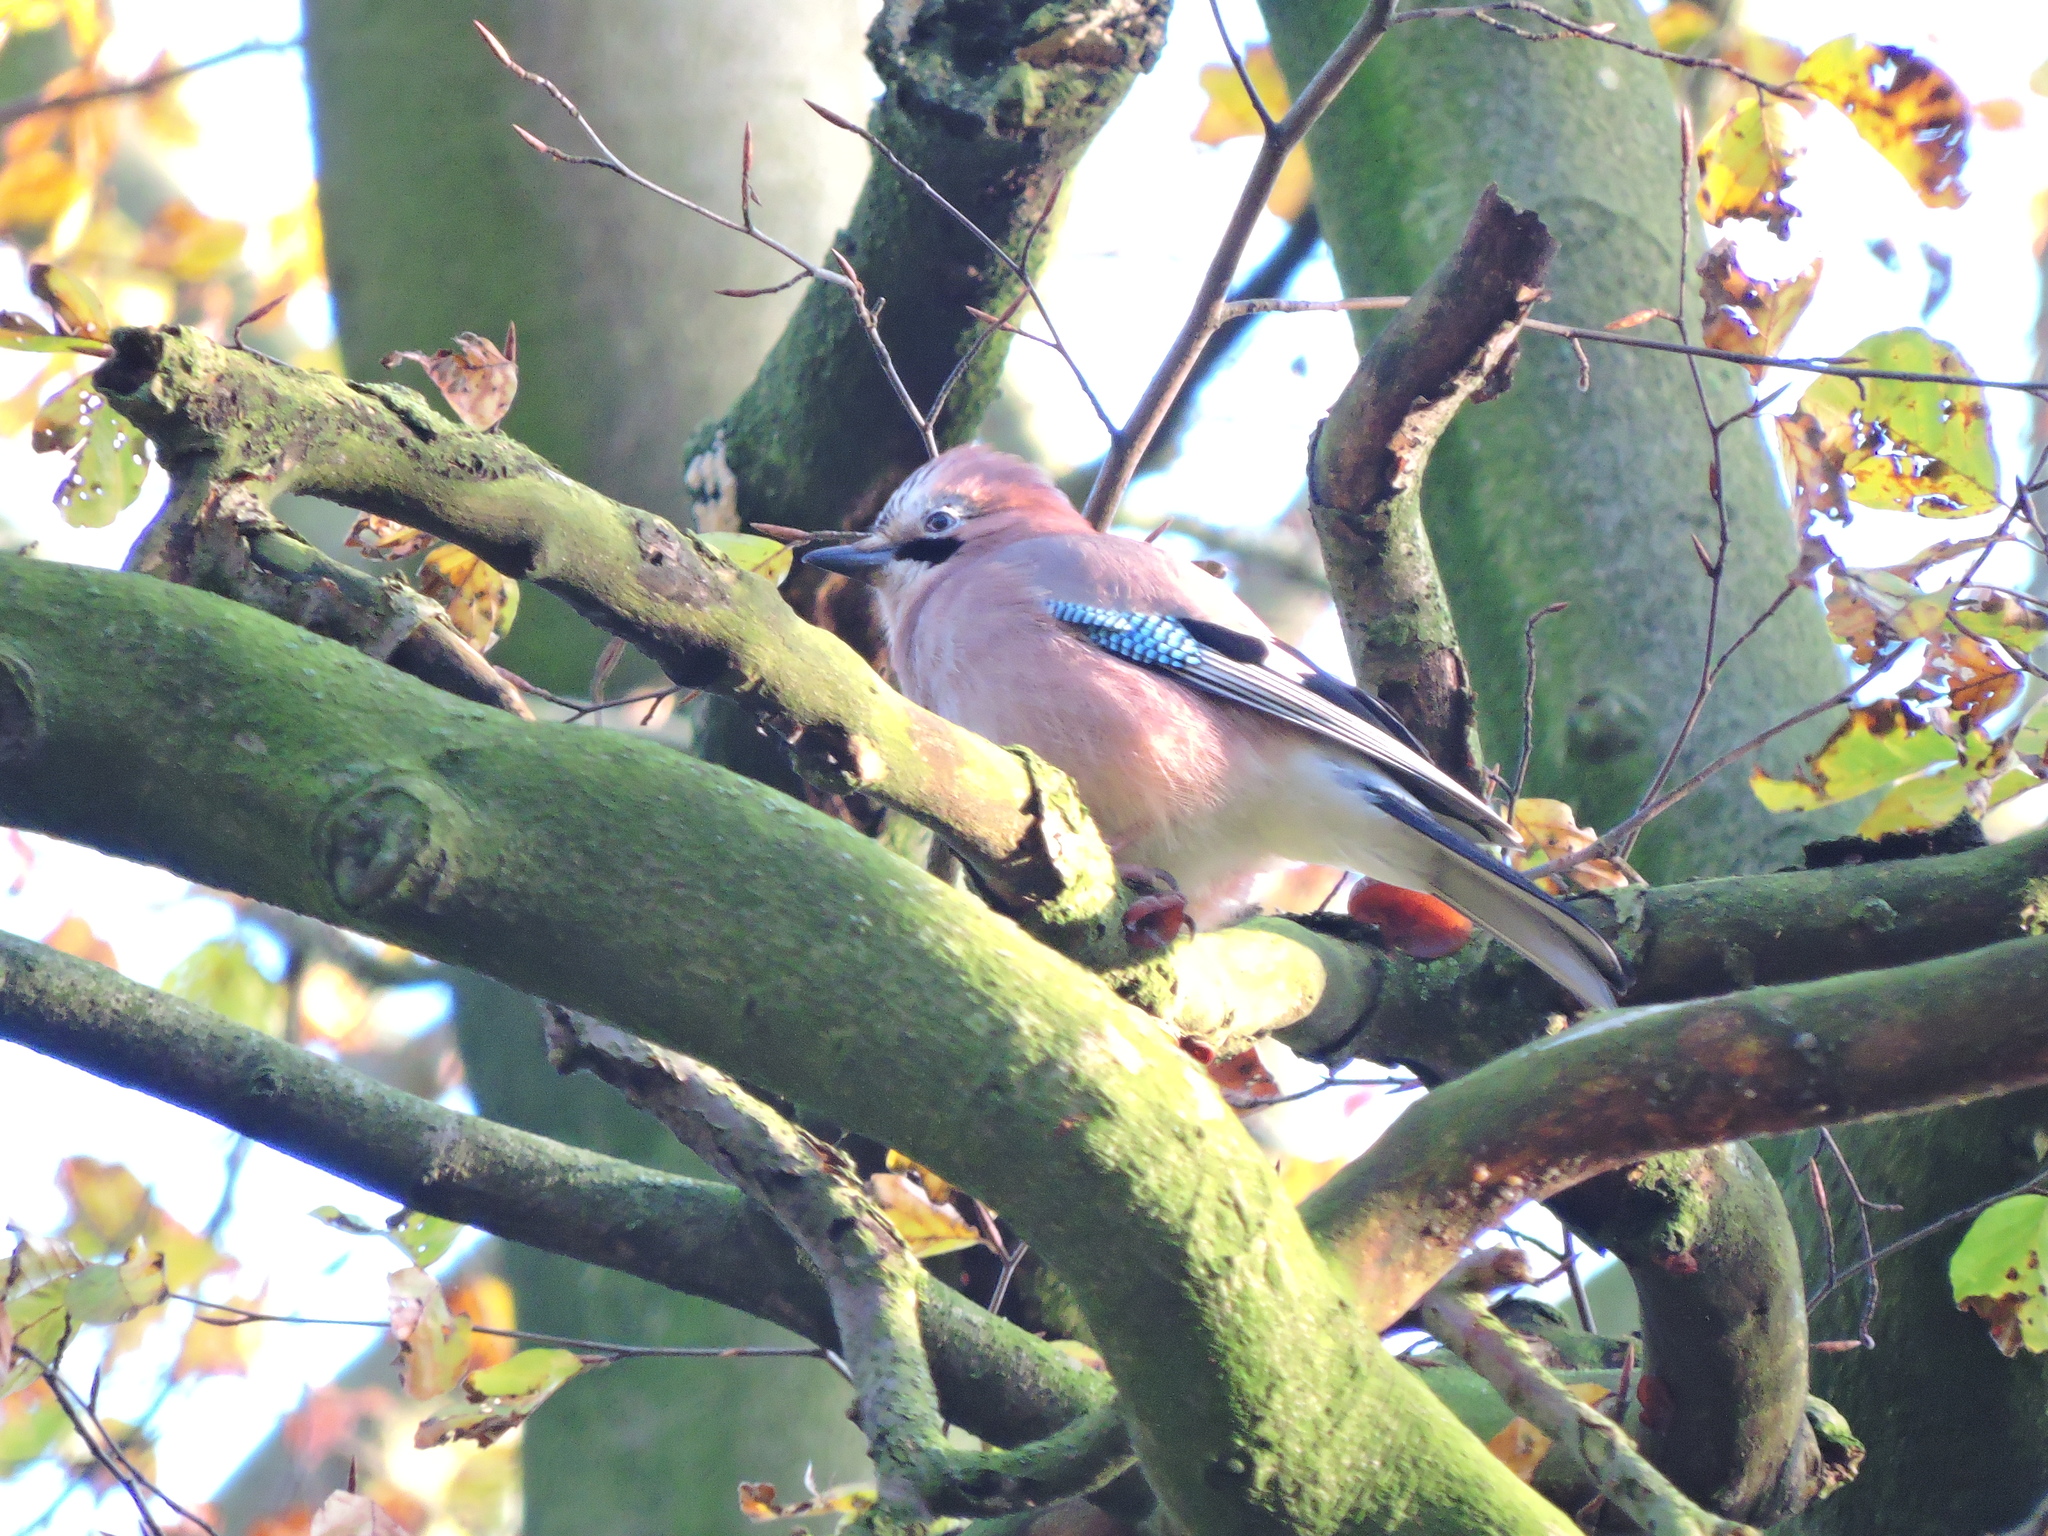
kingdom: Animalia
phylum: Chordata
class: Aves
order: Passeriformes
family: Corvidae
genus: Garrulus
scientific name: Garrulus glandarius
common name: Eurasian jay
